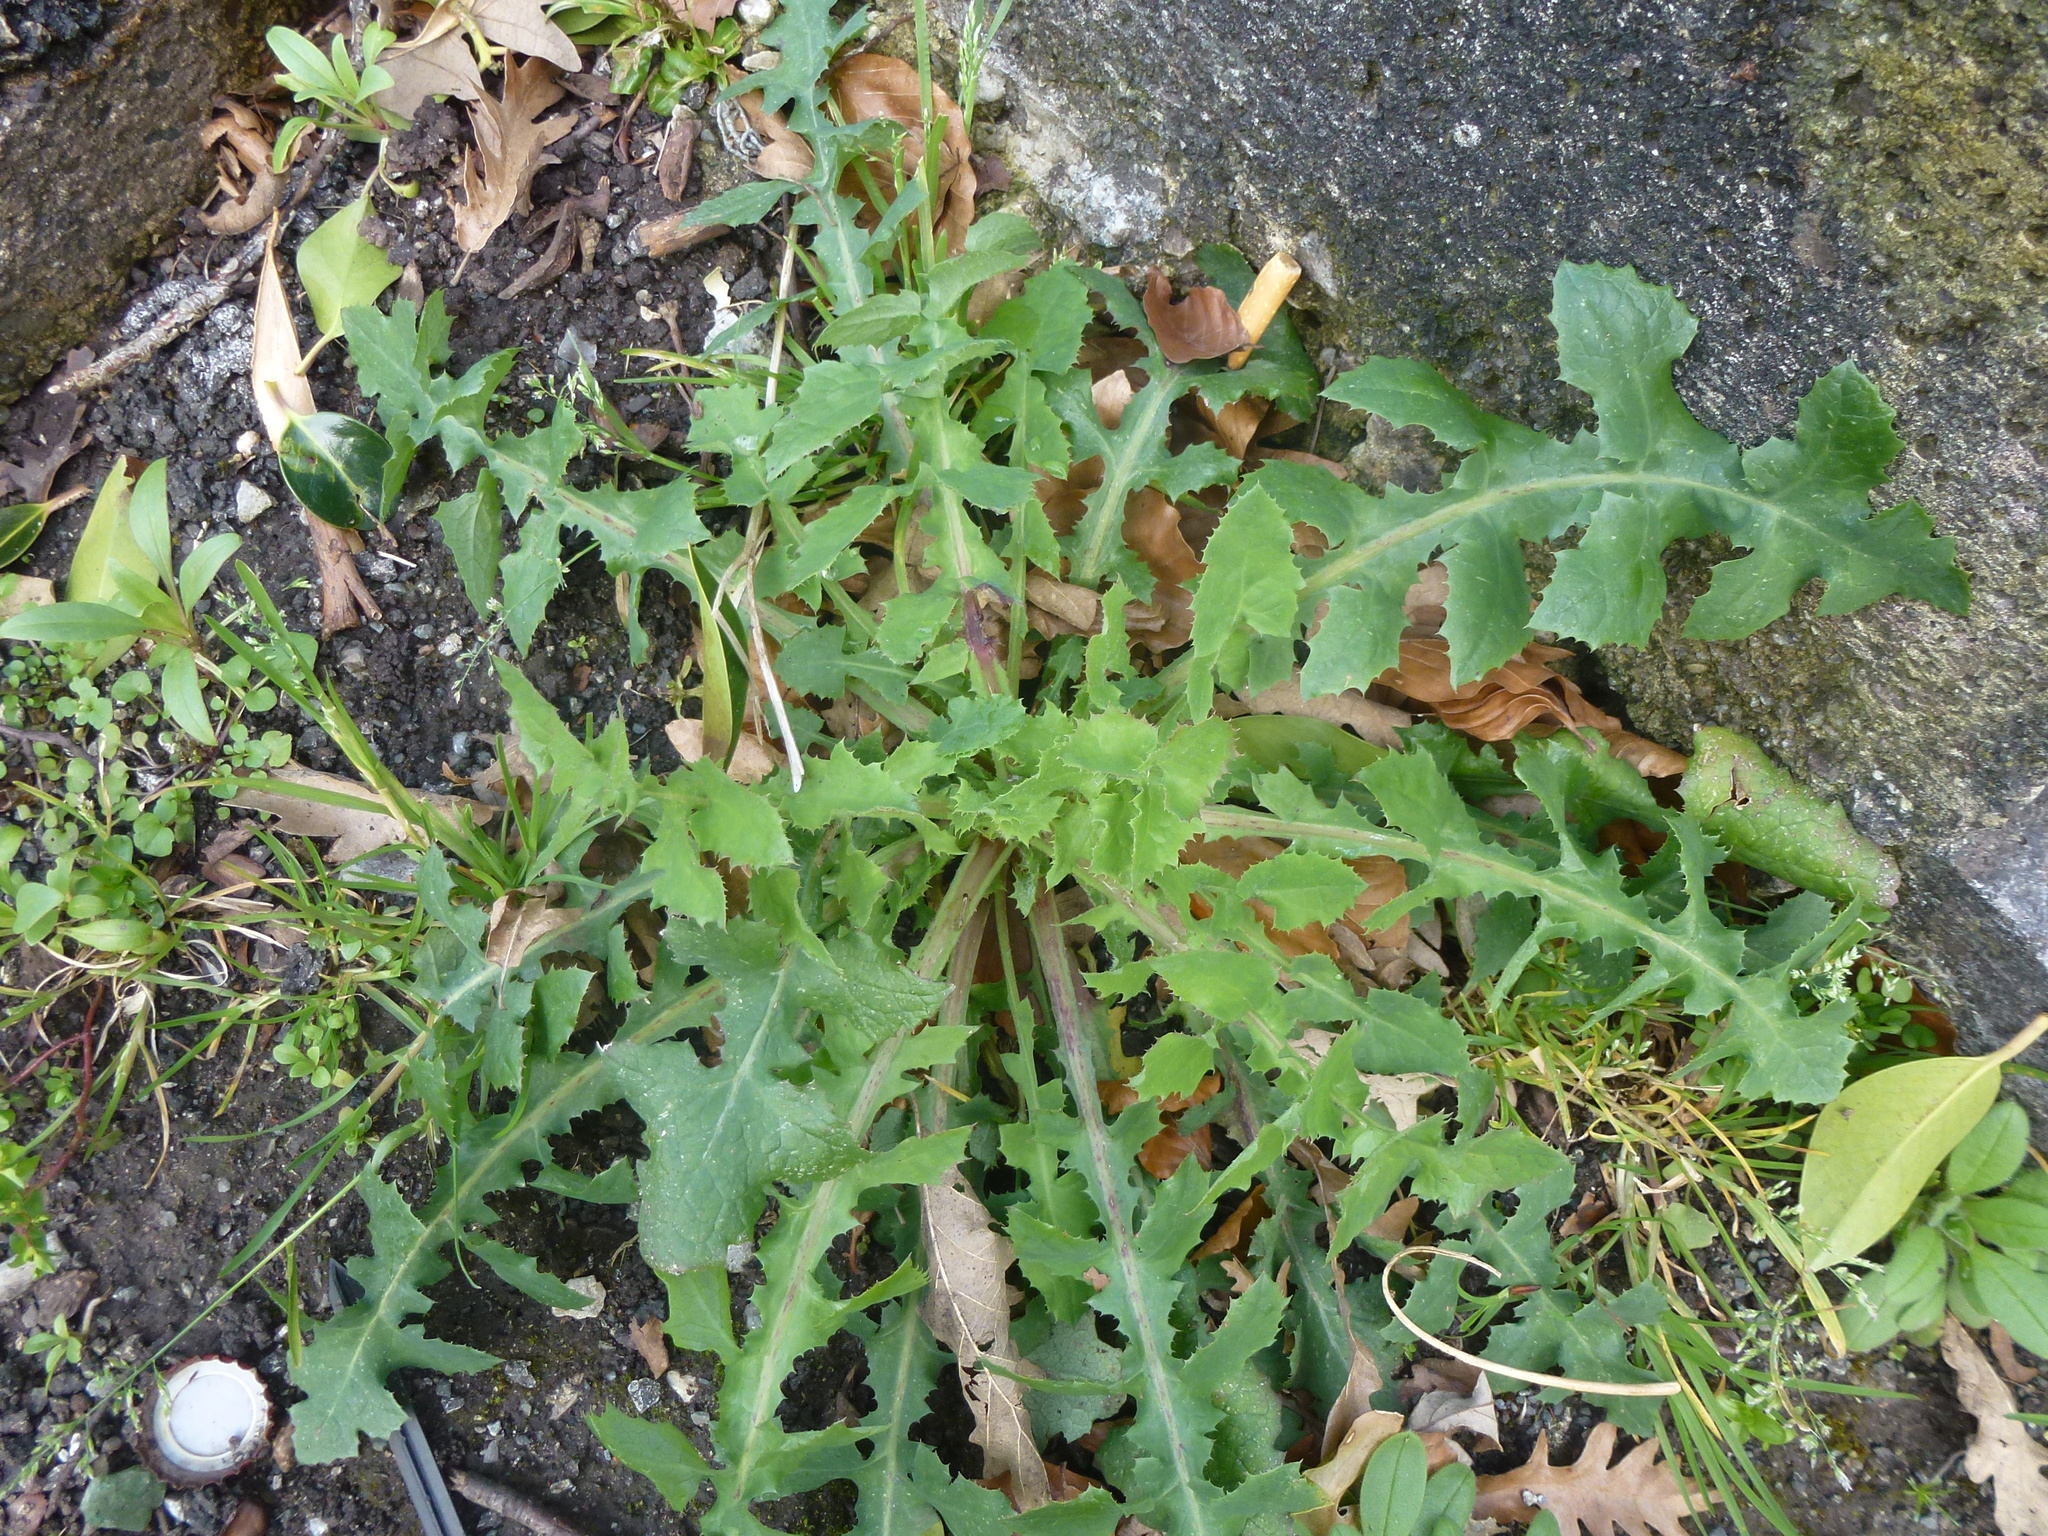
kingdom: Plantae
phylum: Tracheophyta
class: Magnoliopsida
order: Asterales
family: Asteraceae
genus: Sonchus
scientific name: Sonchus oleraceus
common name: Common sowthistle
